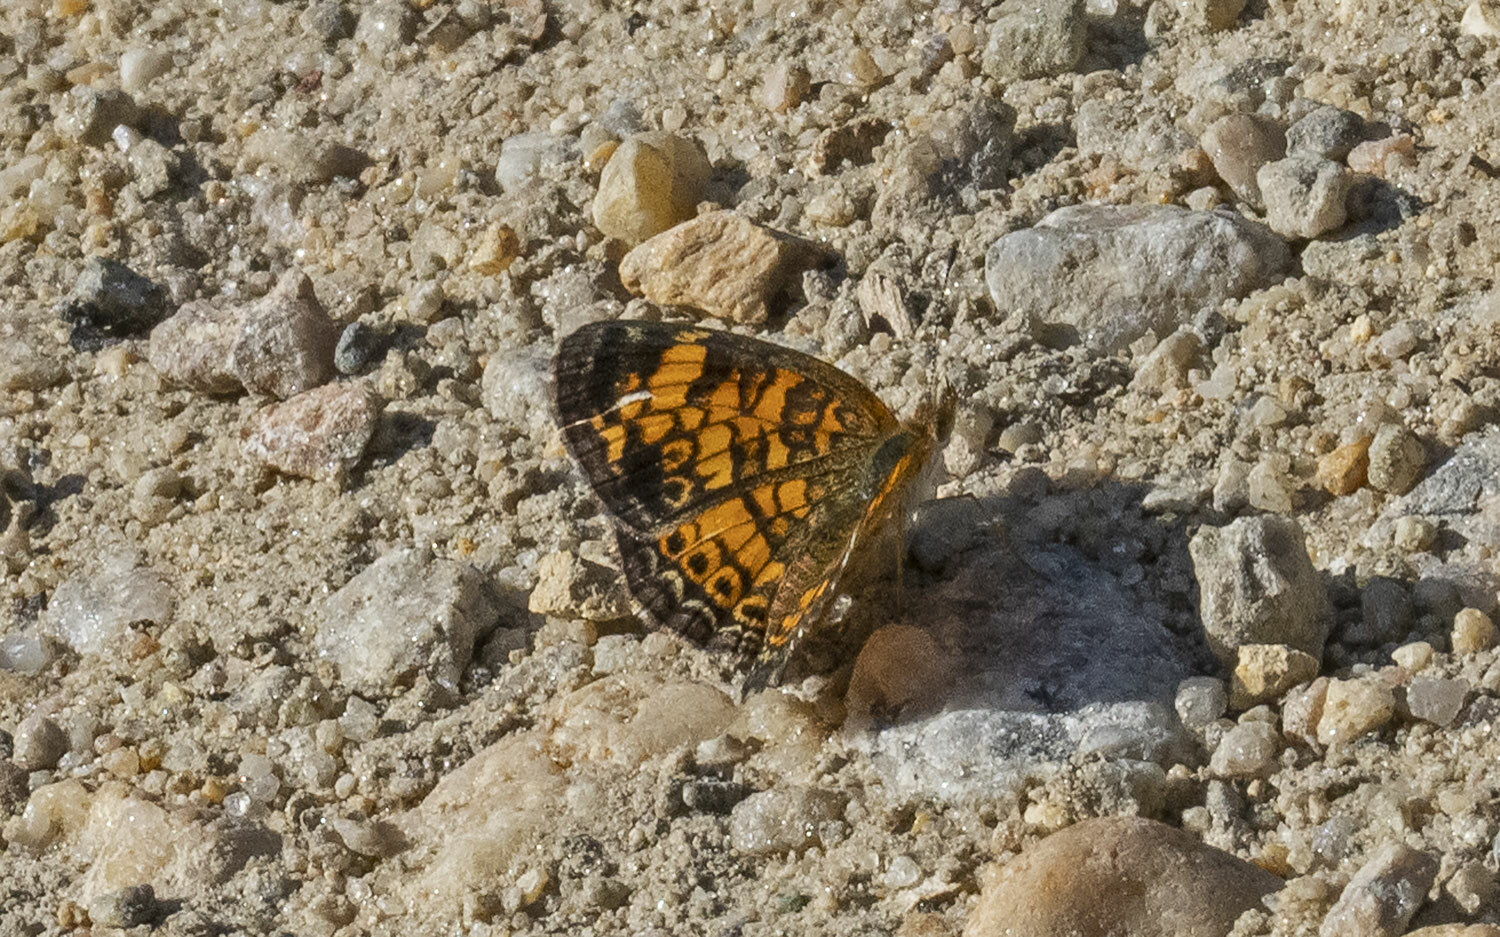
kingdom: Animalia
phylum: Arthropoda
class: Insecta
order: Lepidoptera
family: Nymphalidae
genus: Phyciodes
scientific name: Phyciodes tharos
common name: Pearl crescent
